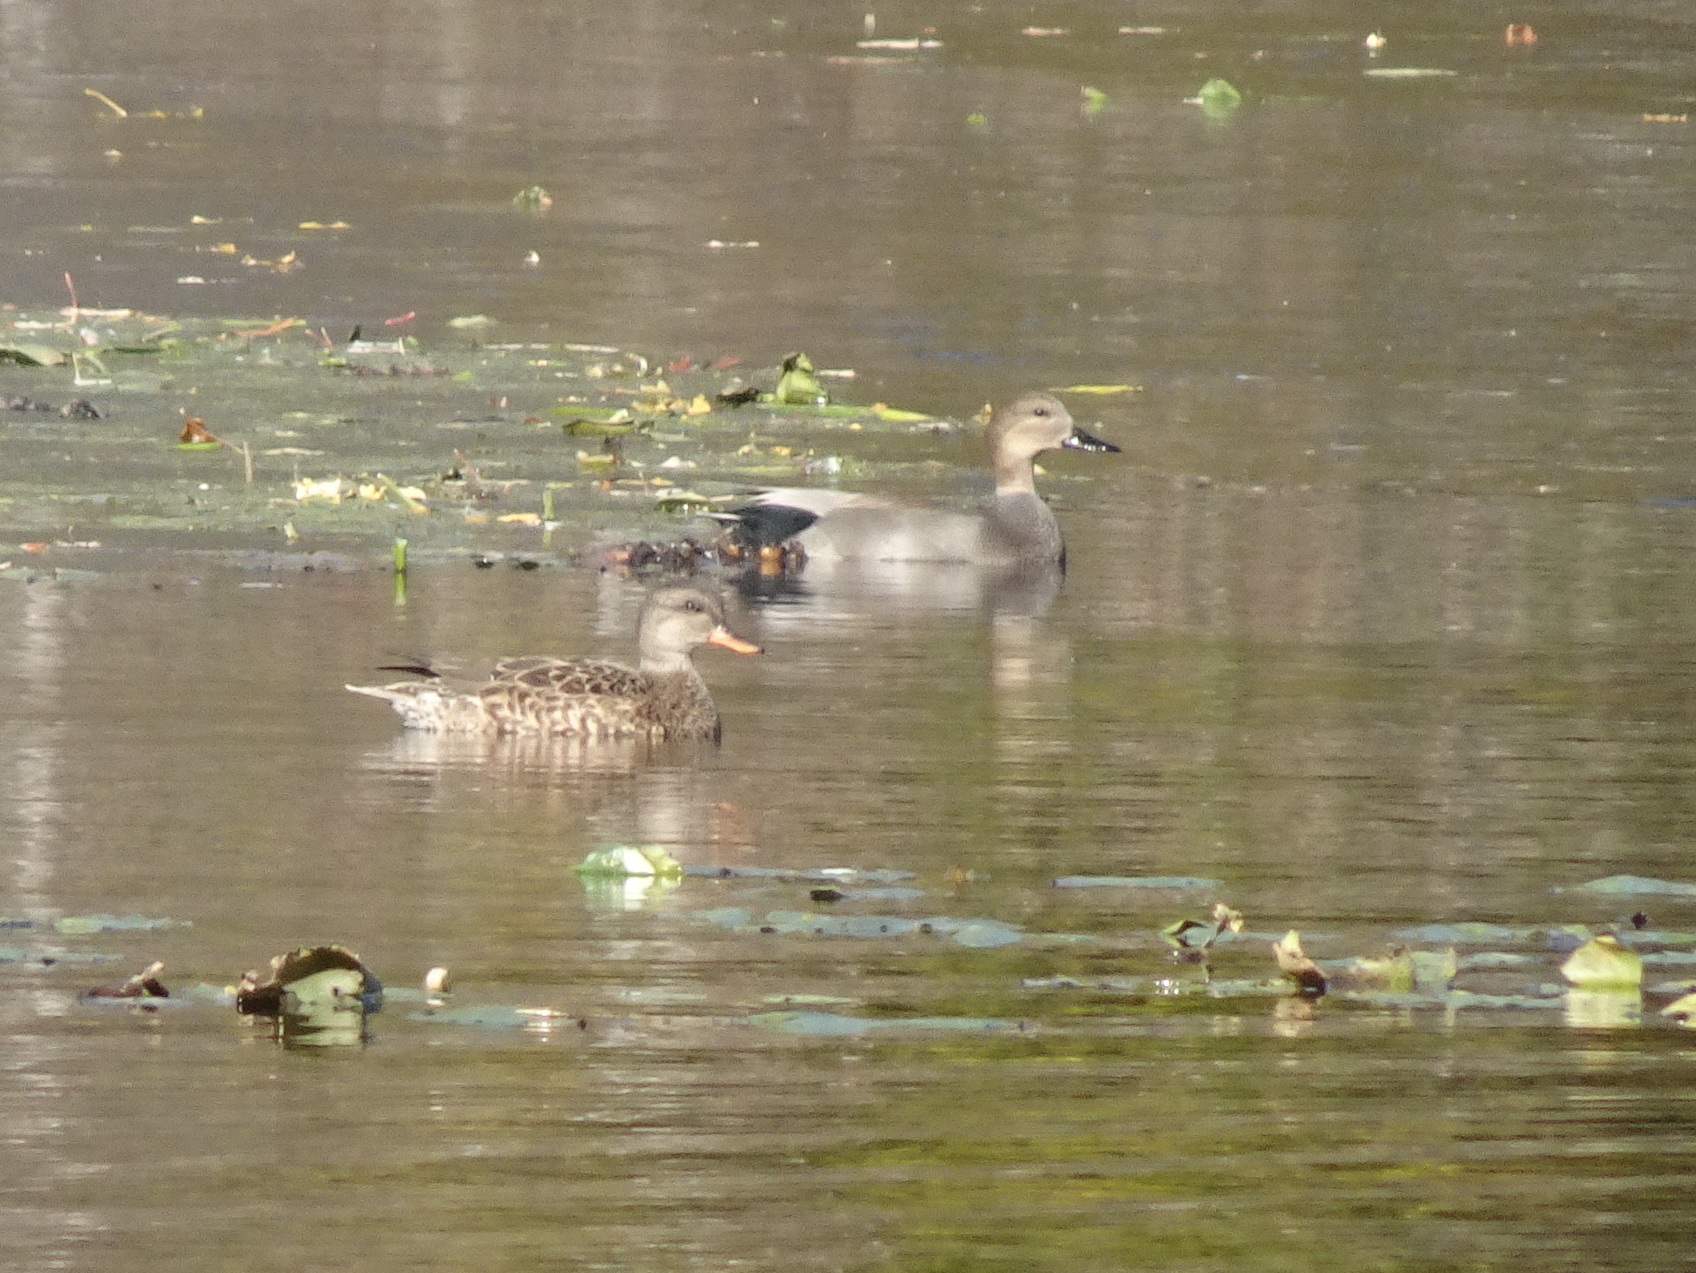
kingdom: Animalia
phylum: Chordata
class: Aves
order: Anseriformes
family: Anatidae
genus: Mareca
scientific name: Mareca strepera
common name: Gadwall
